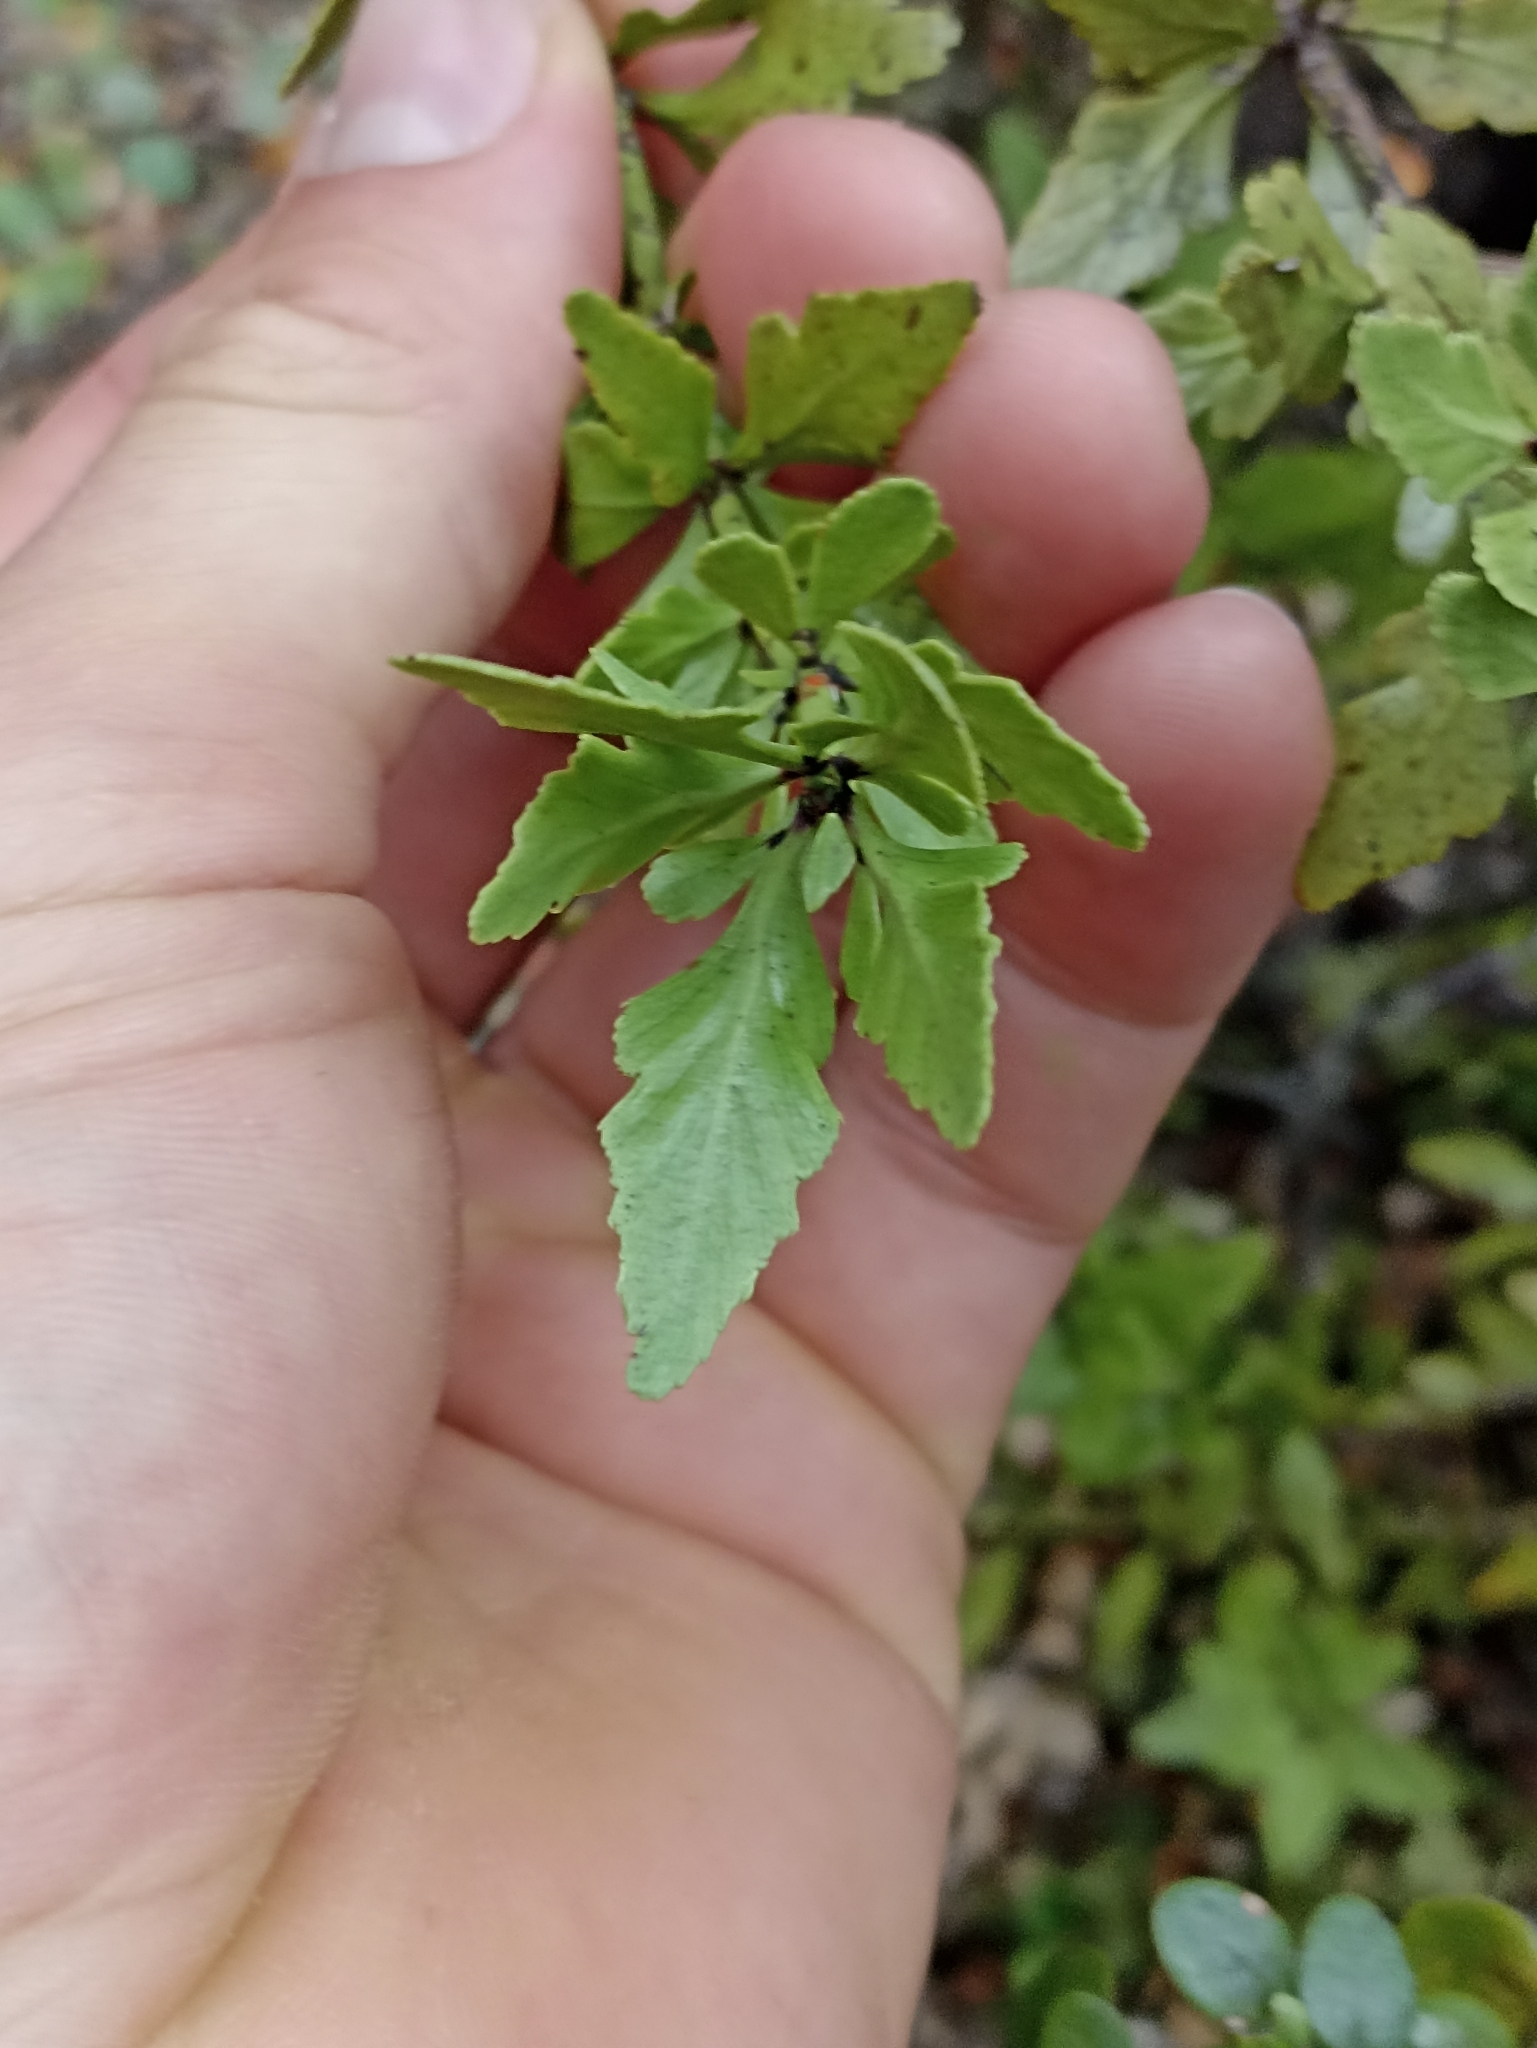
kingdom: Plantae
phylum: Tracheophyta
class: Pinopsida
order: Pinales
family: Phyllocladaceae
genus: Phyllocladus
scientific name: Phyllocladus trichomanoides
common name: Celery pine
